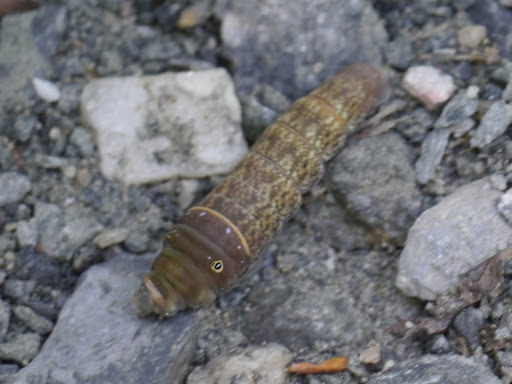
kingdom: Animalia
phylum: Arthropoda
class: Insecta
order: Lepidoptera
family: Papilionidae
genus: Papilio
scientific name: Papilio glaucus
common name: Tiger swallowtail
